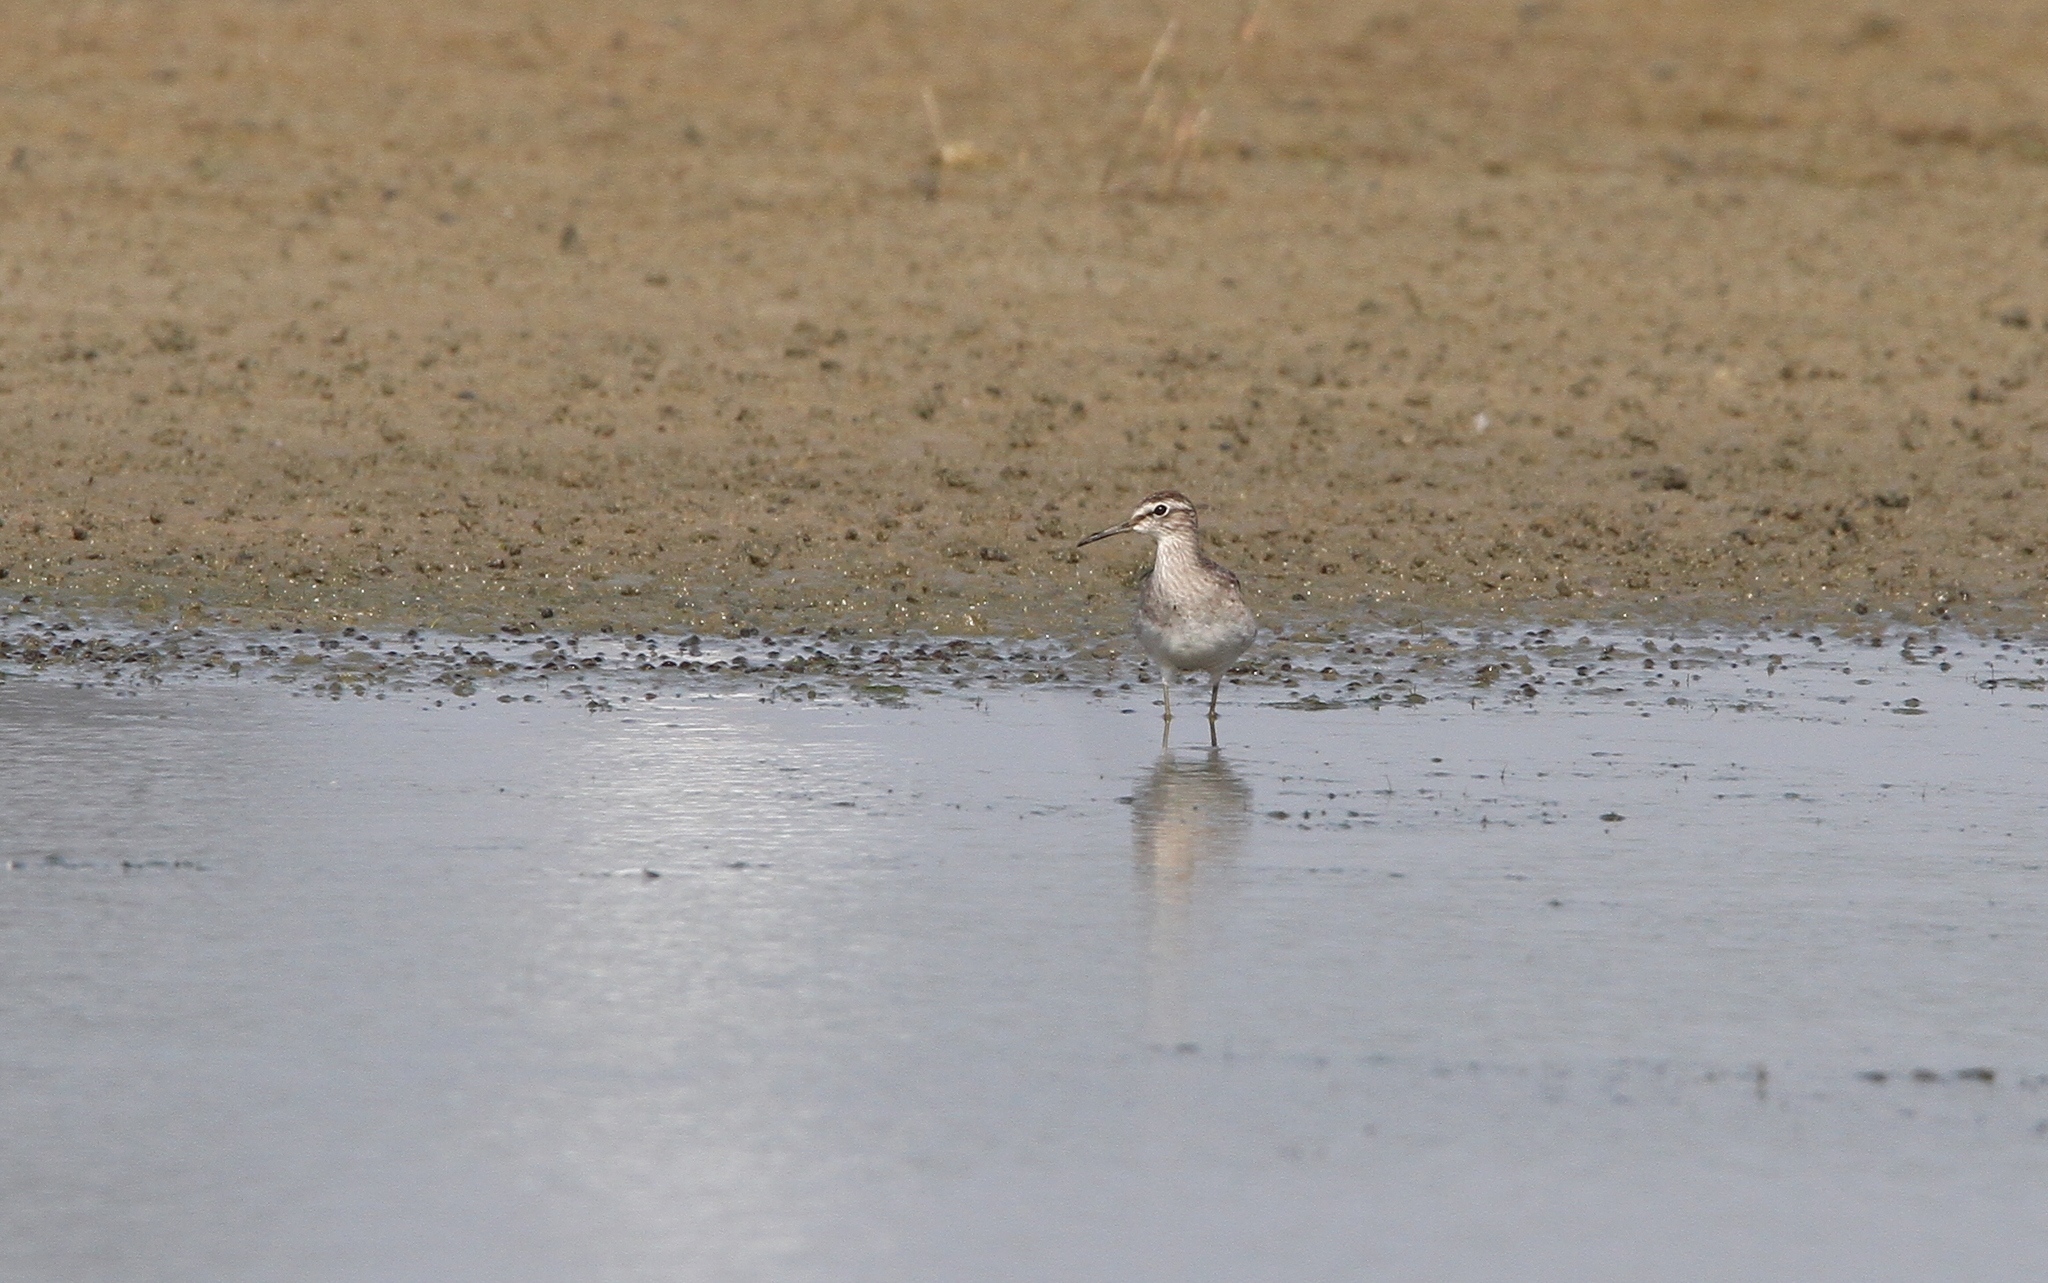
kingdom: Animalia
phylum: Chordata
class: Aves
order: Charadriiformes
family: Scolopacidae
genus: Tringa
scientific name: Tringa glareola
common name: Wood sandpiper
